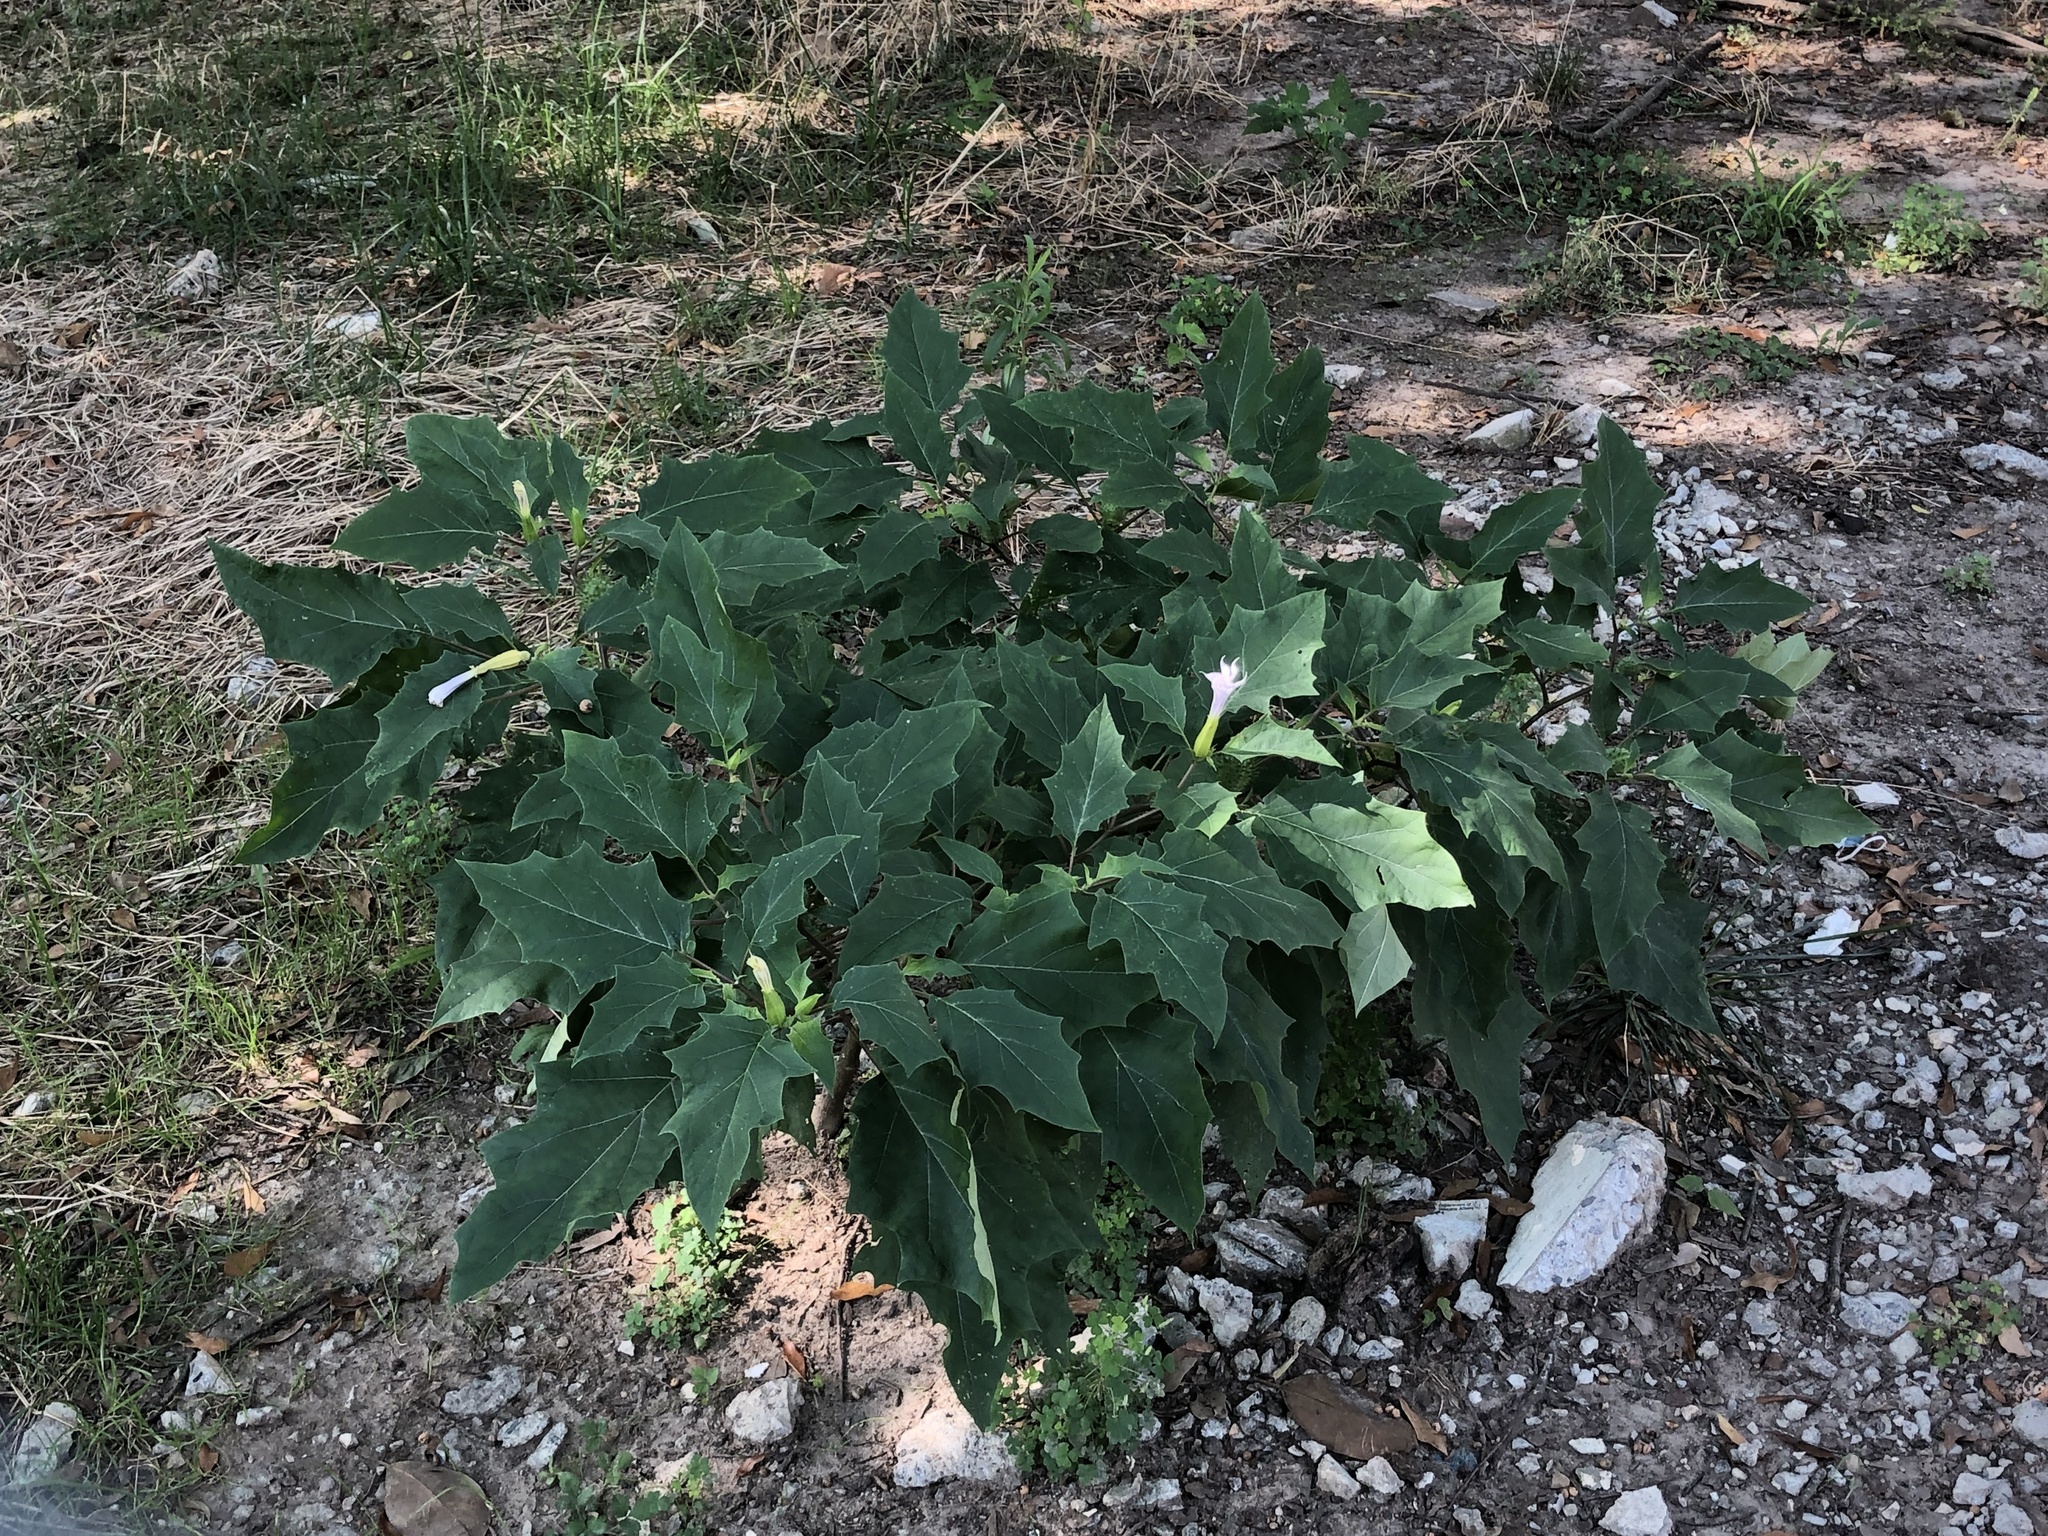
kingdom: Plantae
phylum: Tracheophyta
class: Magnoliopsida
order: Solanales
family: Solanaceae
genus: Datura
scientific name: Datura stramonium
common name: Thorn-apple
